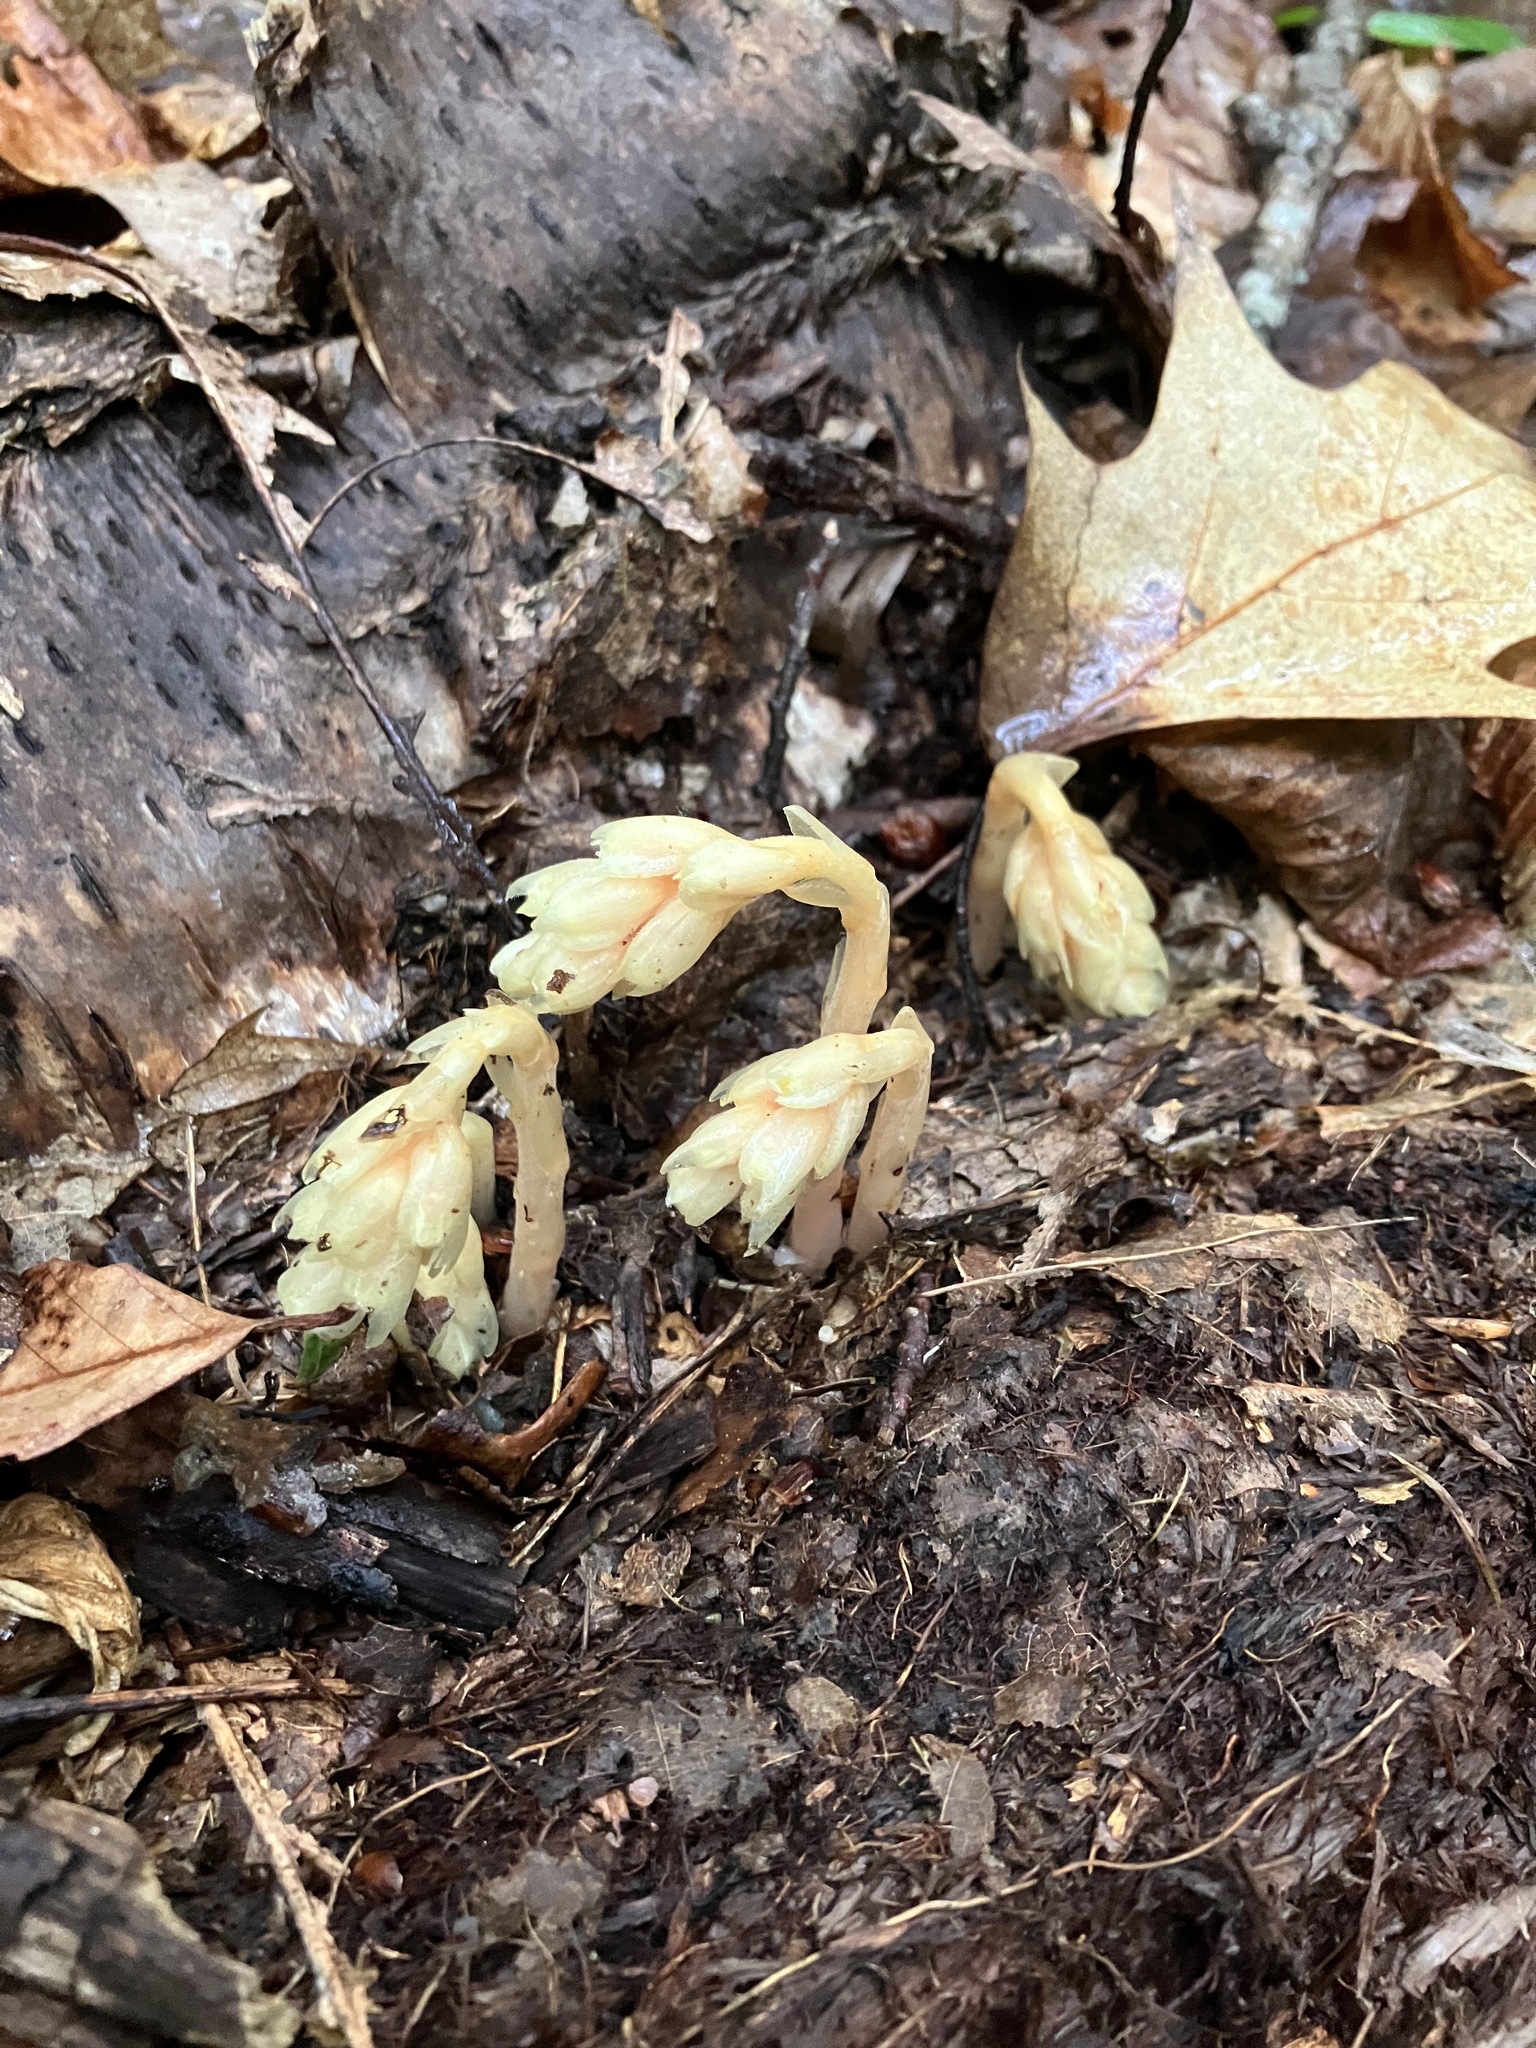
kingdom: Plantae
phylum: Tracheophyta
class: Magnoliopsida
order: Ericales
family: Ericaceae
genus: Hypopitys
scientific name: Hypopitys monotropa
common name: Yellow bird's-nest
